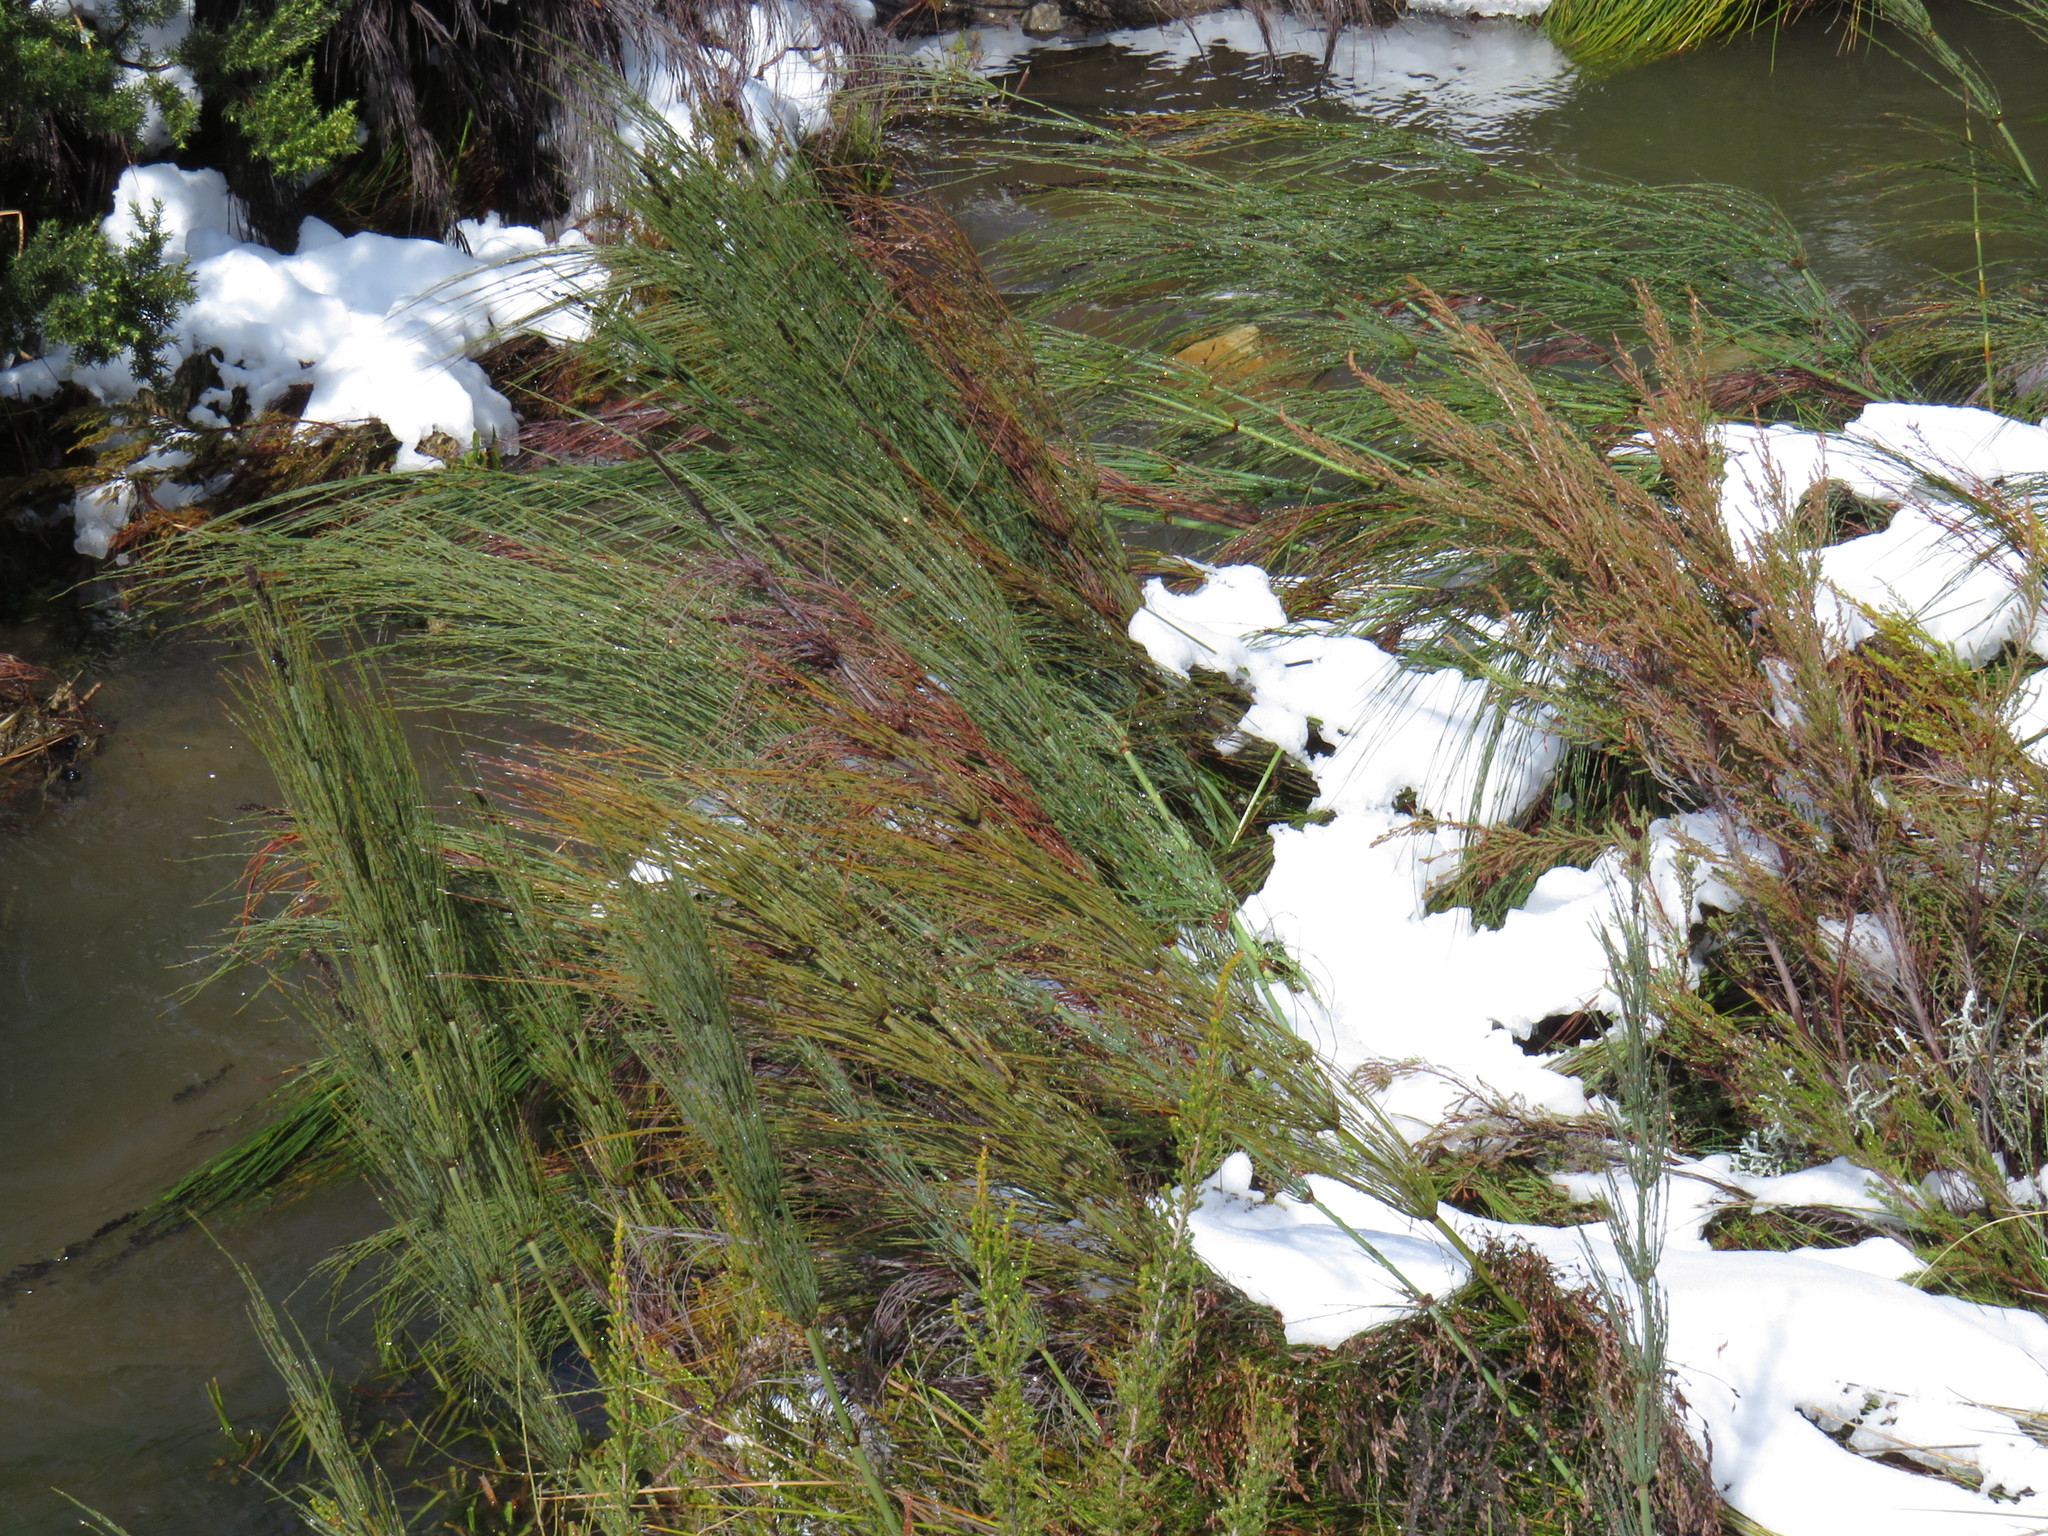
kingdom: Plantae
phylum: Tracheophyta
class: Liliopsida
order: Poales
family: Restionaceae
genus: Elegia
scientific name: Elegia capensis
